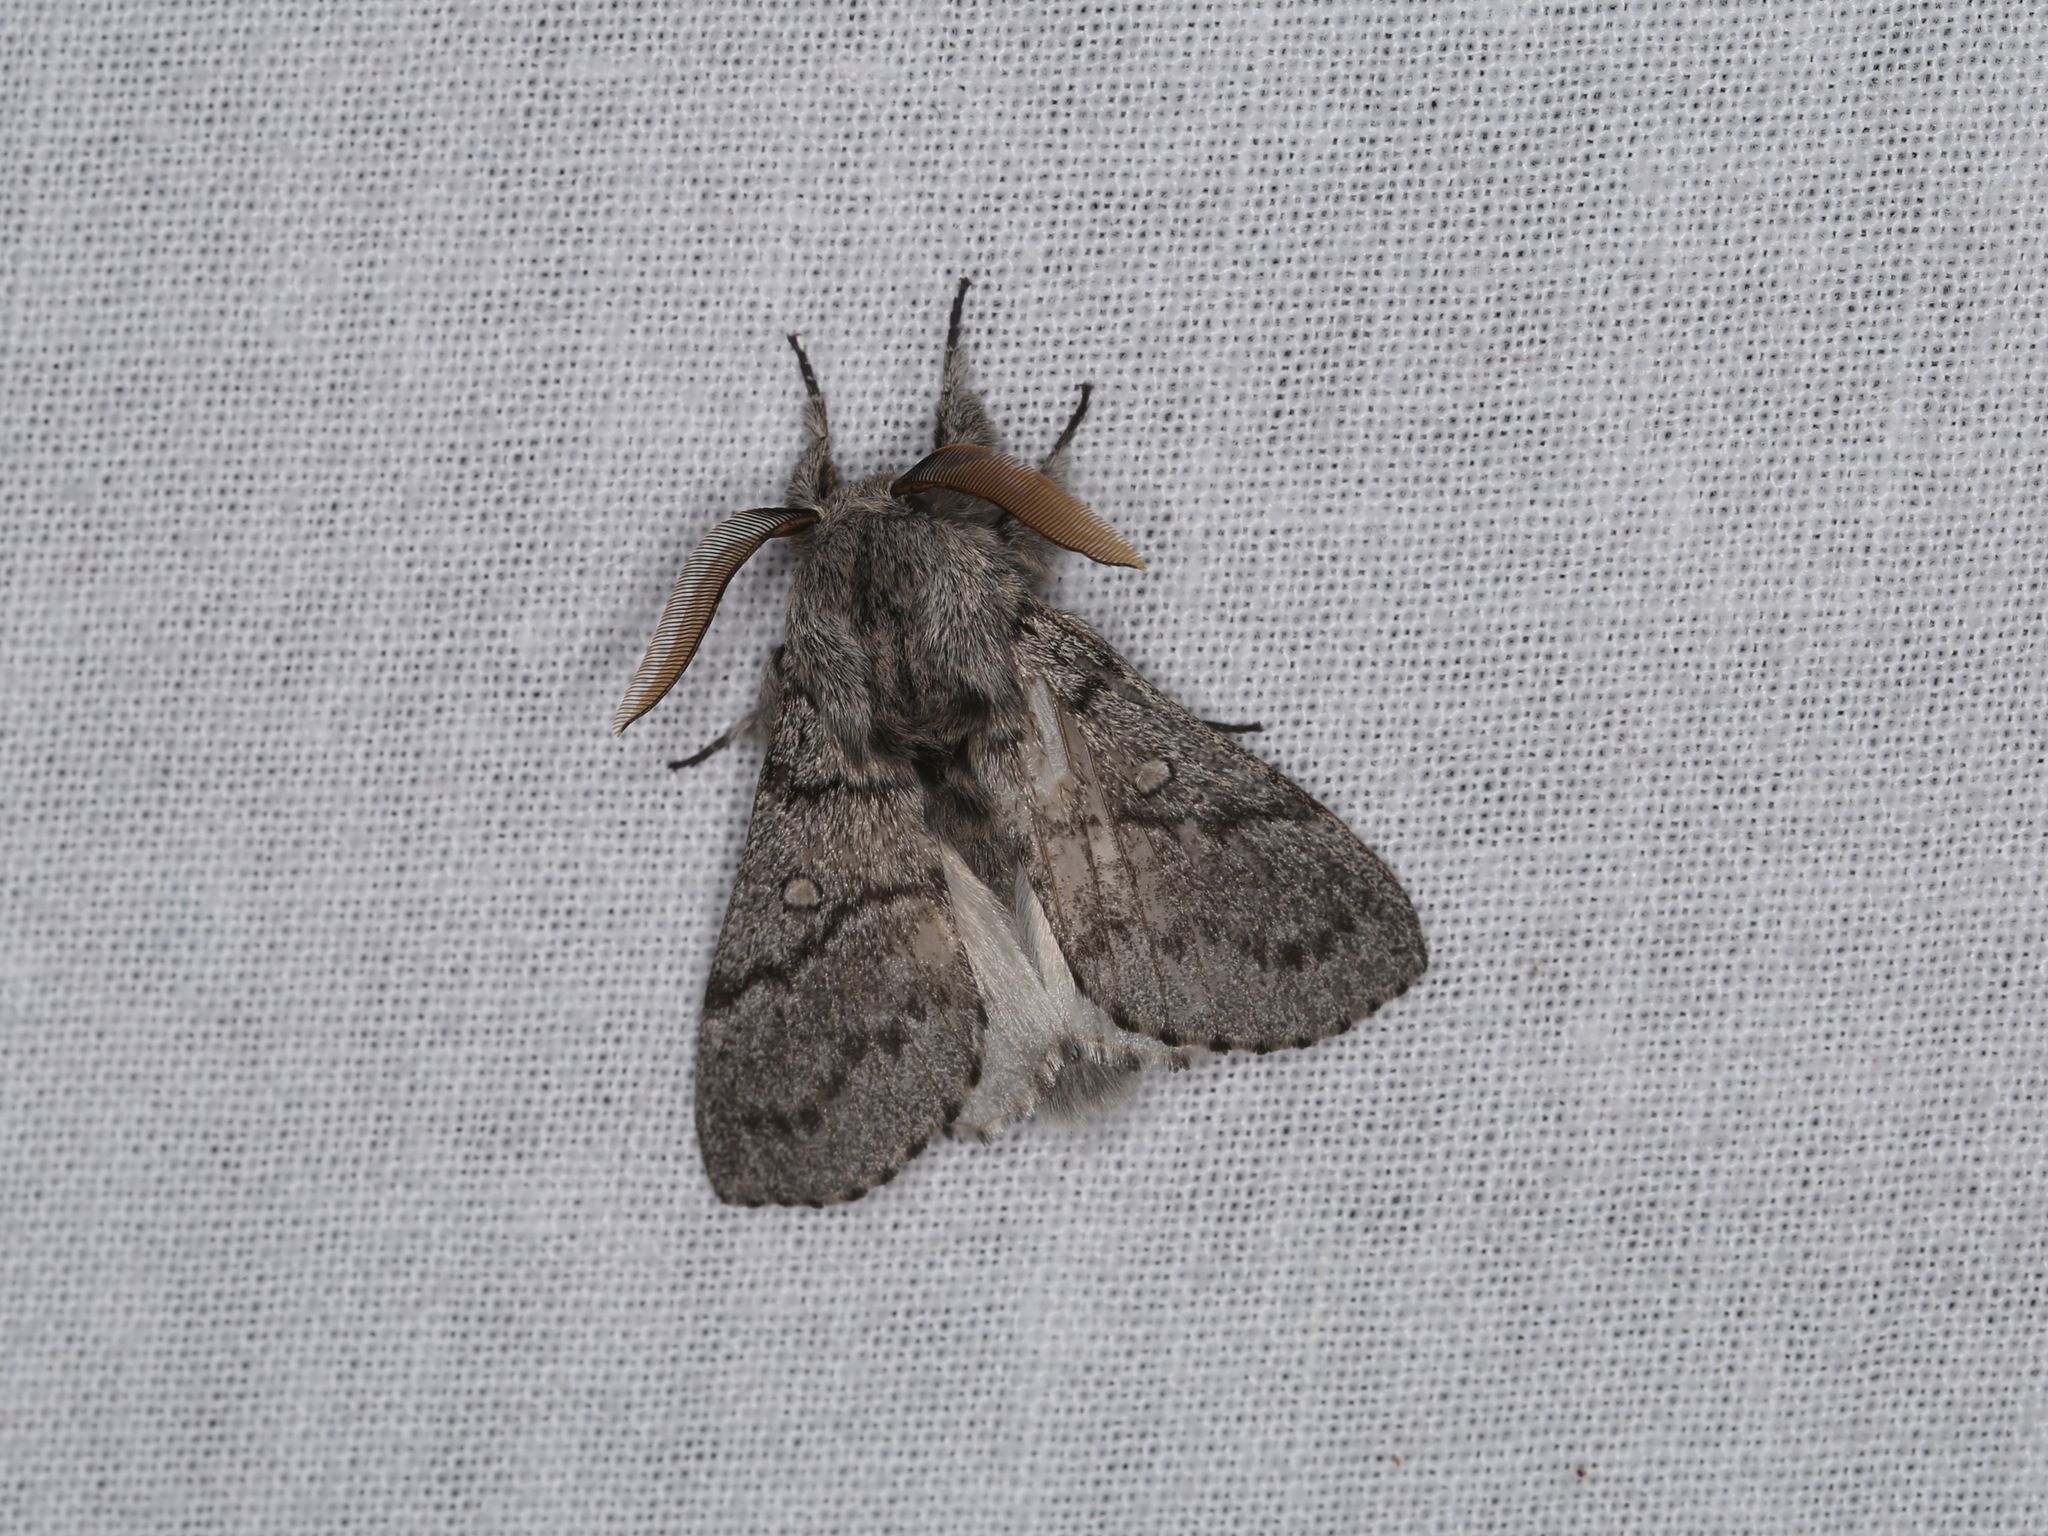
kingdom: Animalia
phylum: Arthropoda
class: Insecta
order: Lepidoptera
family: Lasiocampidae
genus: Porela
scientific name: Porela notodontina
